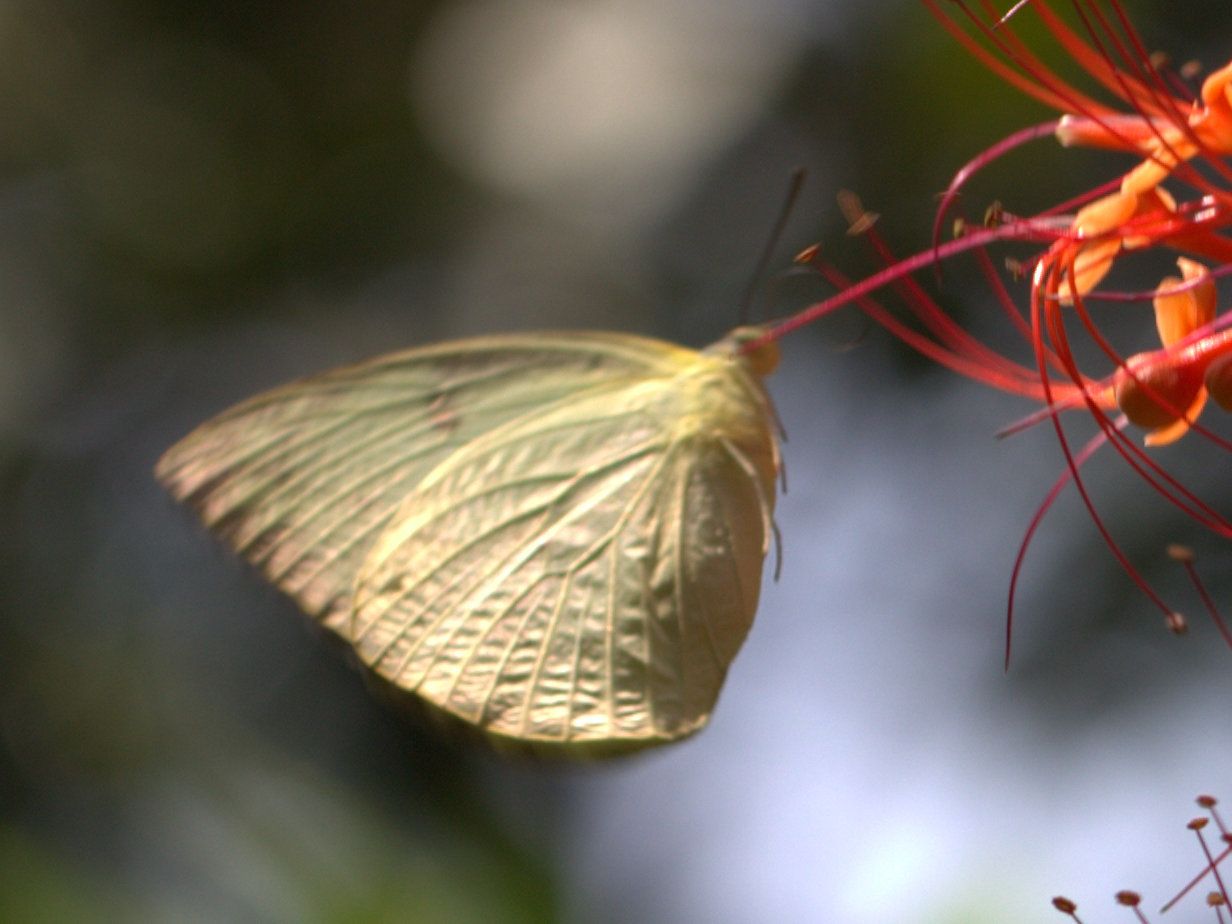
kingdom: Animalia
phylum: Arthropoda
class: Insecta
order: Lepidoptera
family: Pieridae
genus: Catopsilia
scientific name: Catopsilia pomona
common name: Common emigrant
